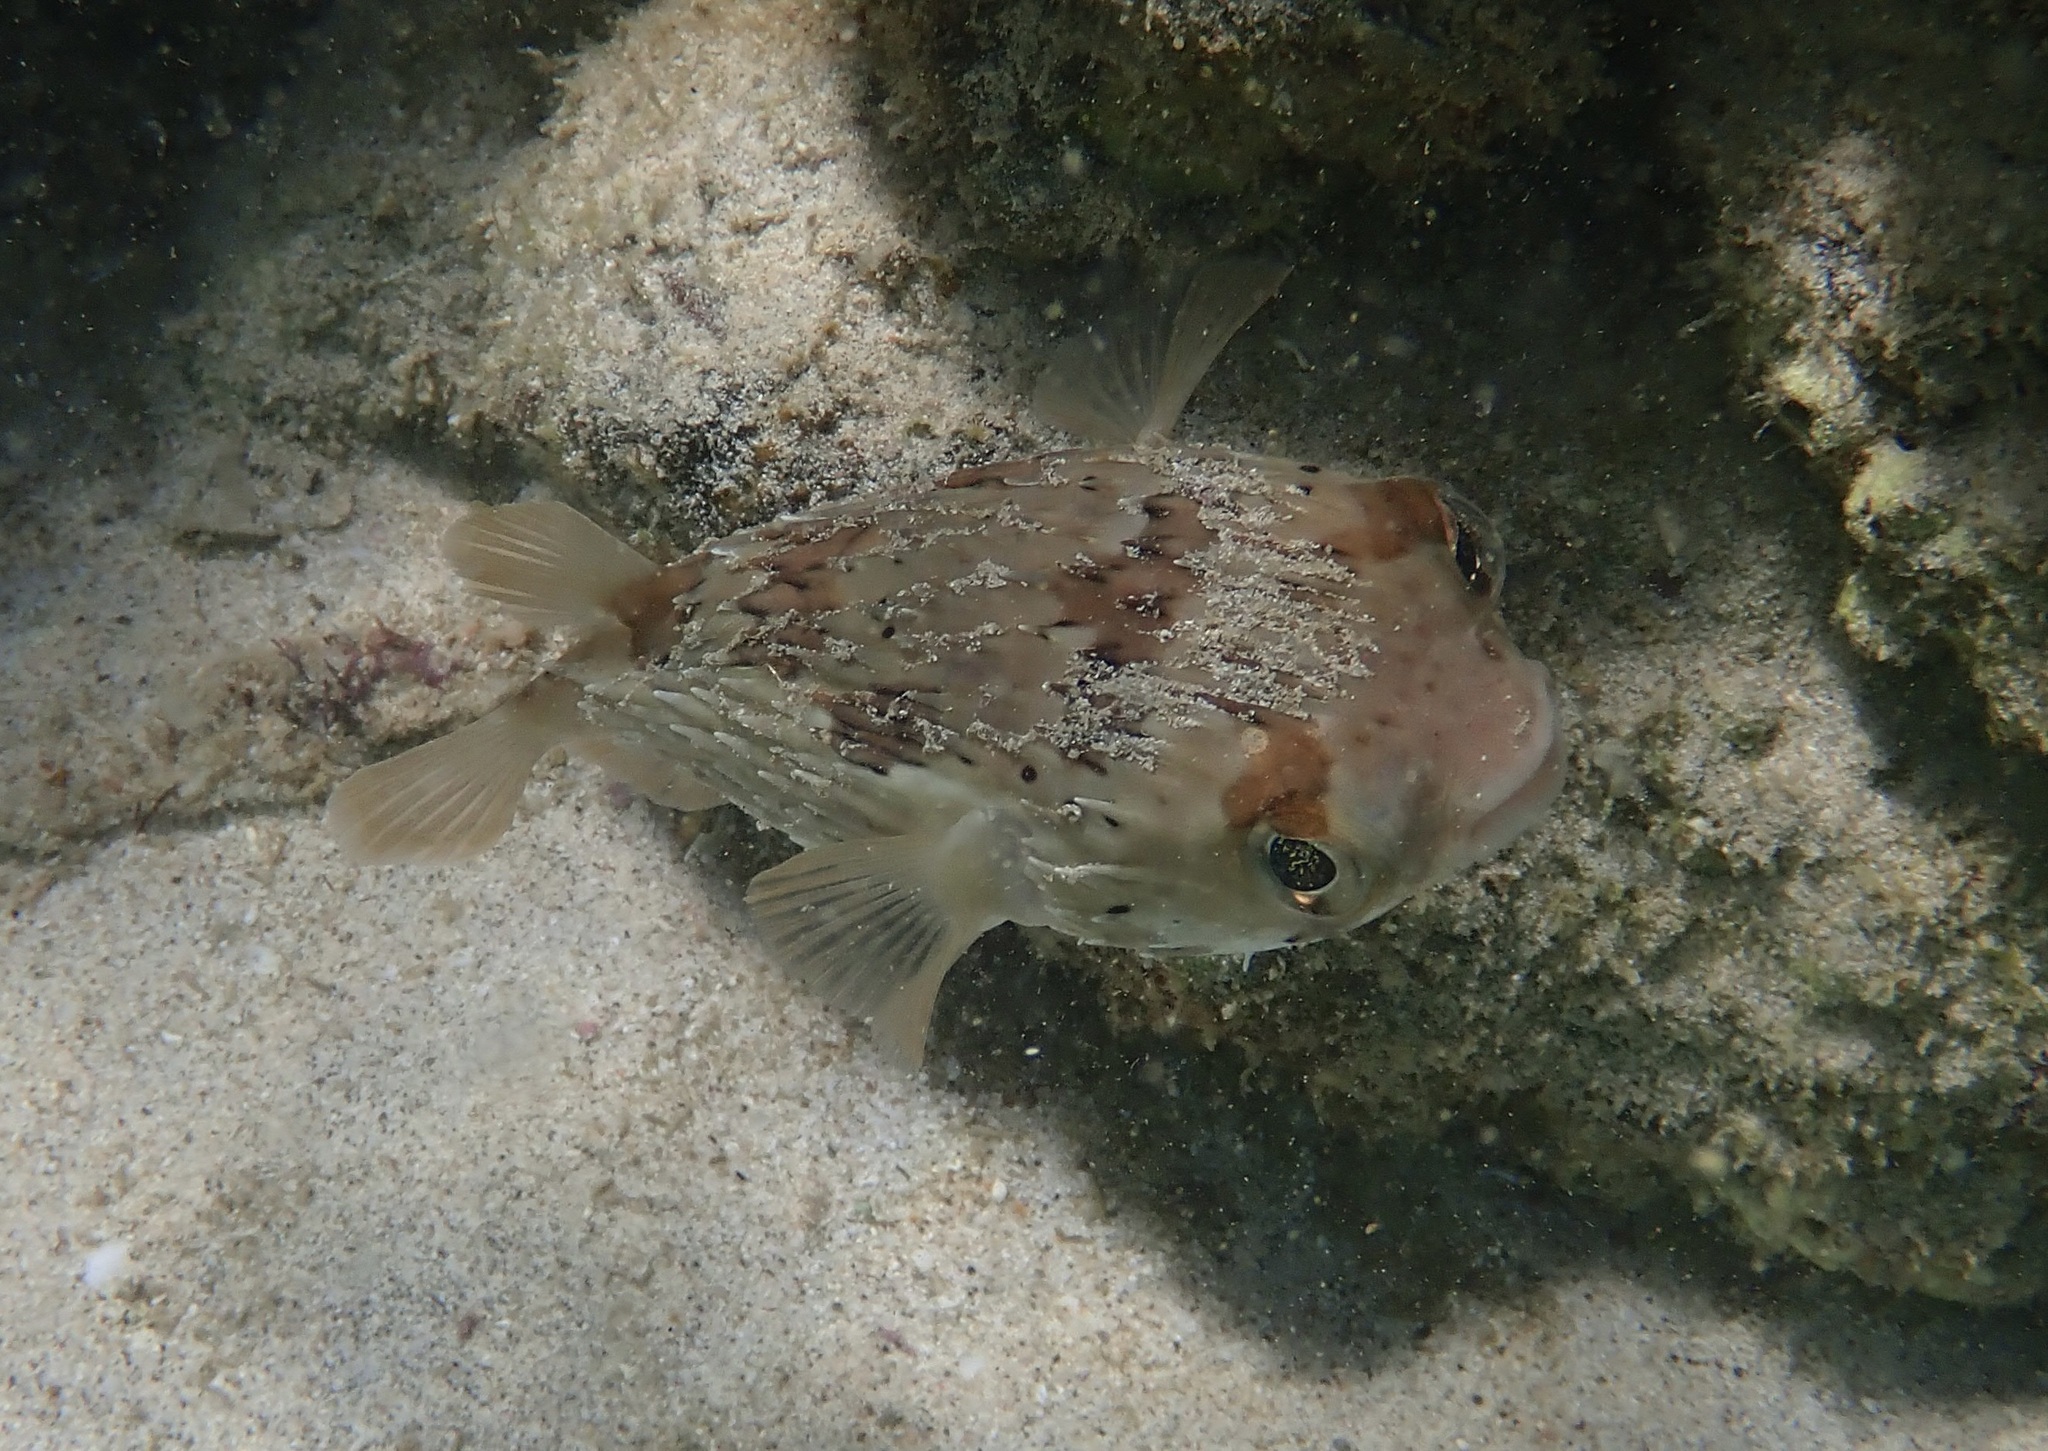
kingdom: Animalia
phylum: Chordata
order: Tetraodontiformes
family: Diodontidae
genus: Diodon
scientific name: Diodon holocanthus
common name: Balloonfish
